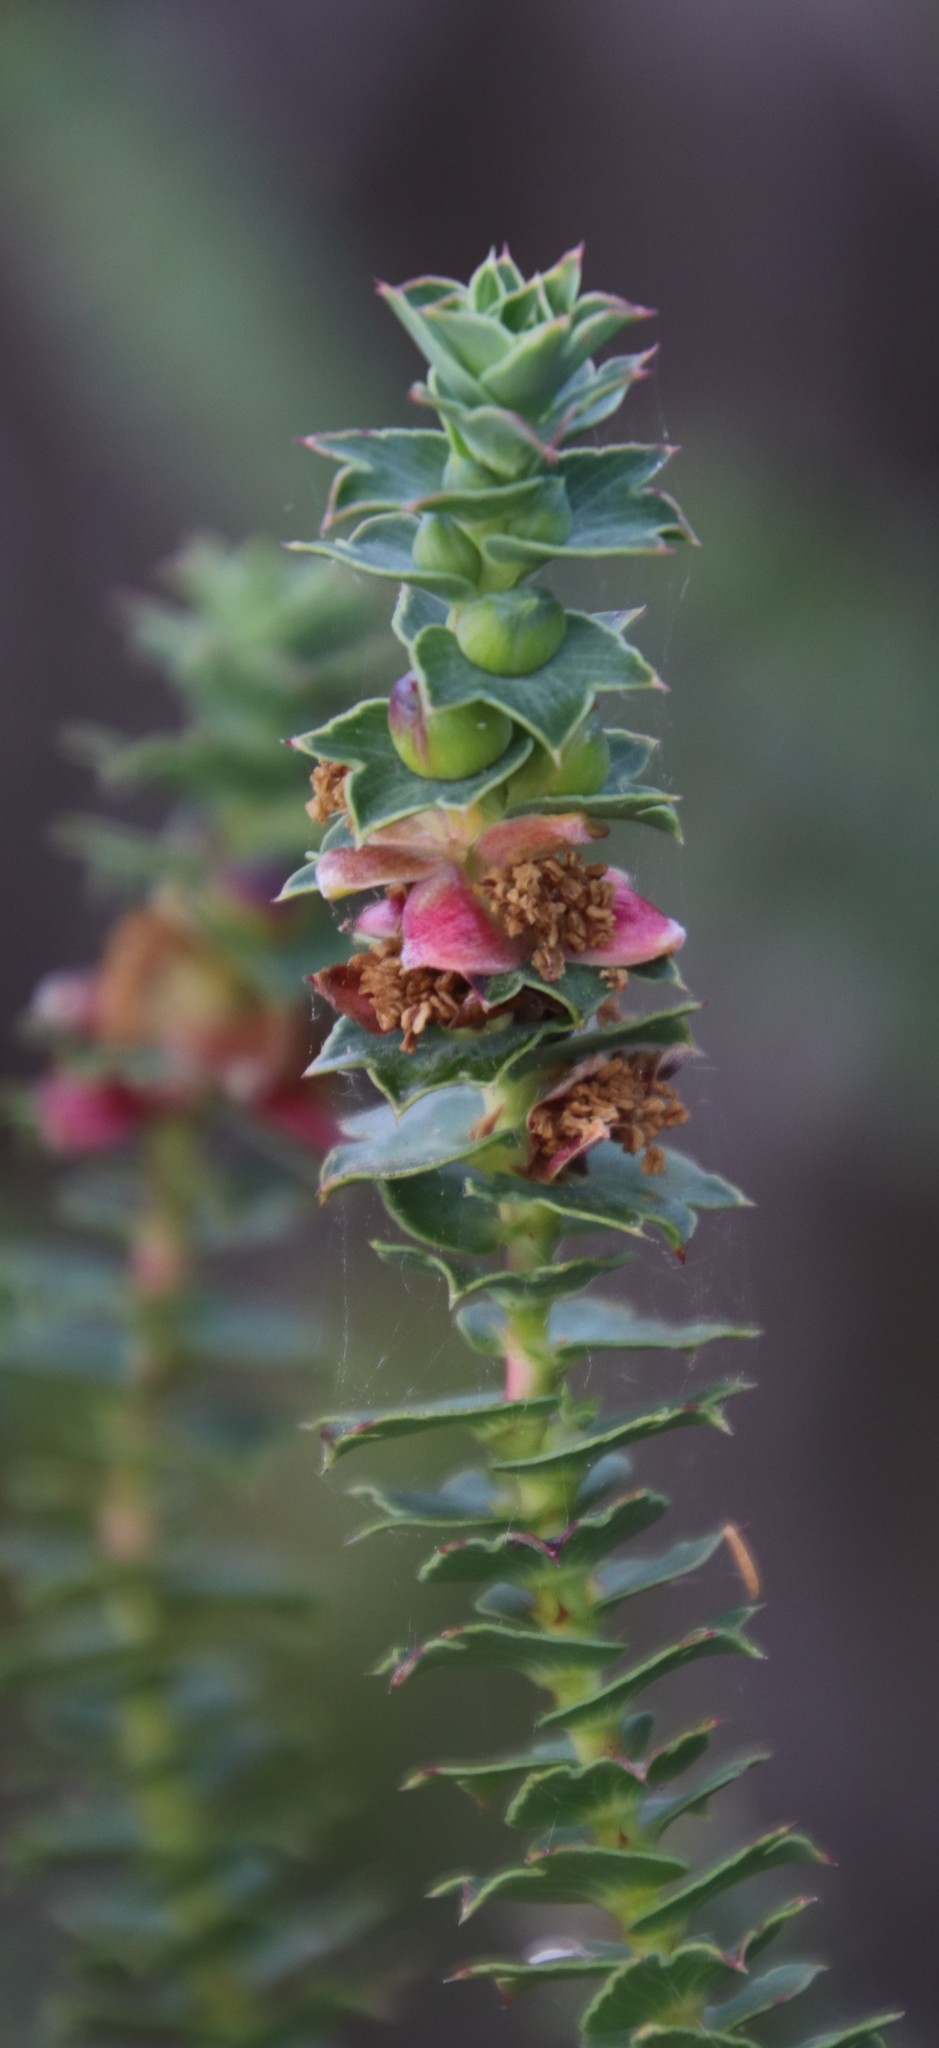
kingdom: Plantae
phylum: Tracheophyta
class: Magnoliopsida
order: Rosales
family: Rosaceae
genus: Cliffortia
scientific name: Cliffortia schlechteri
